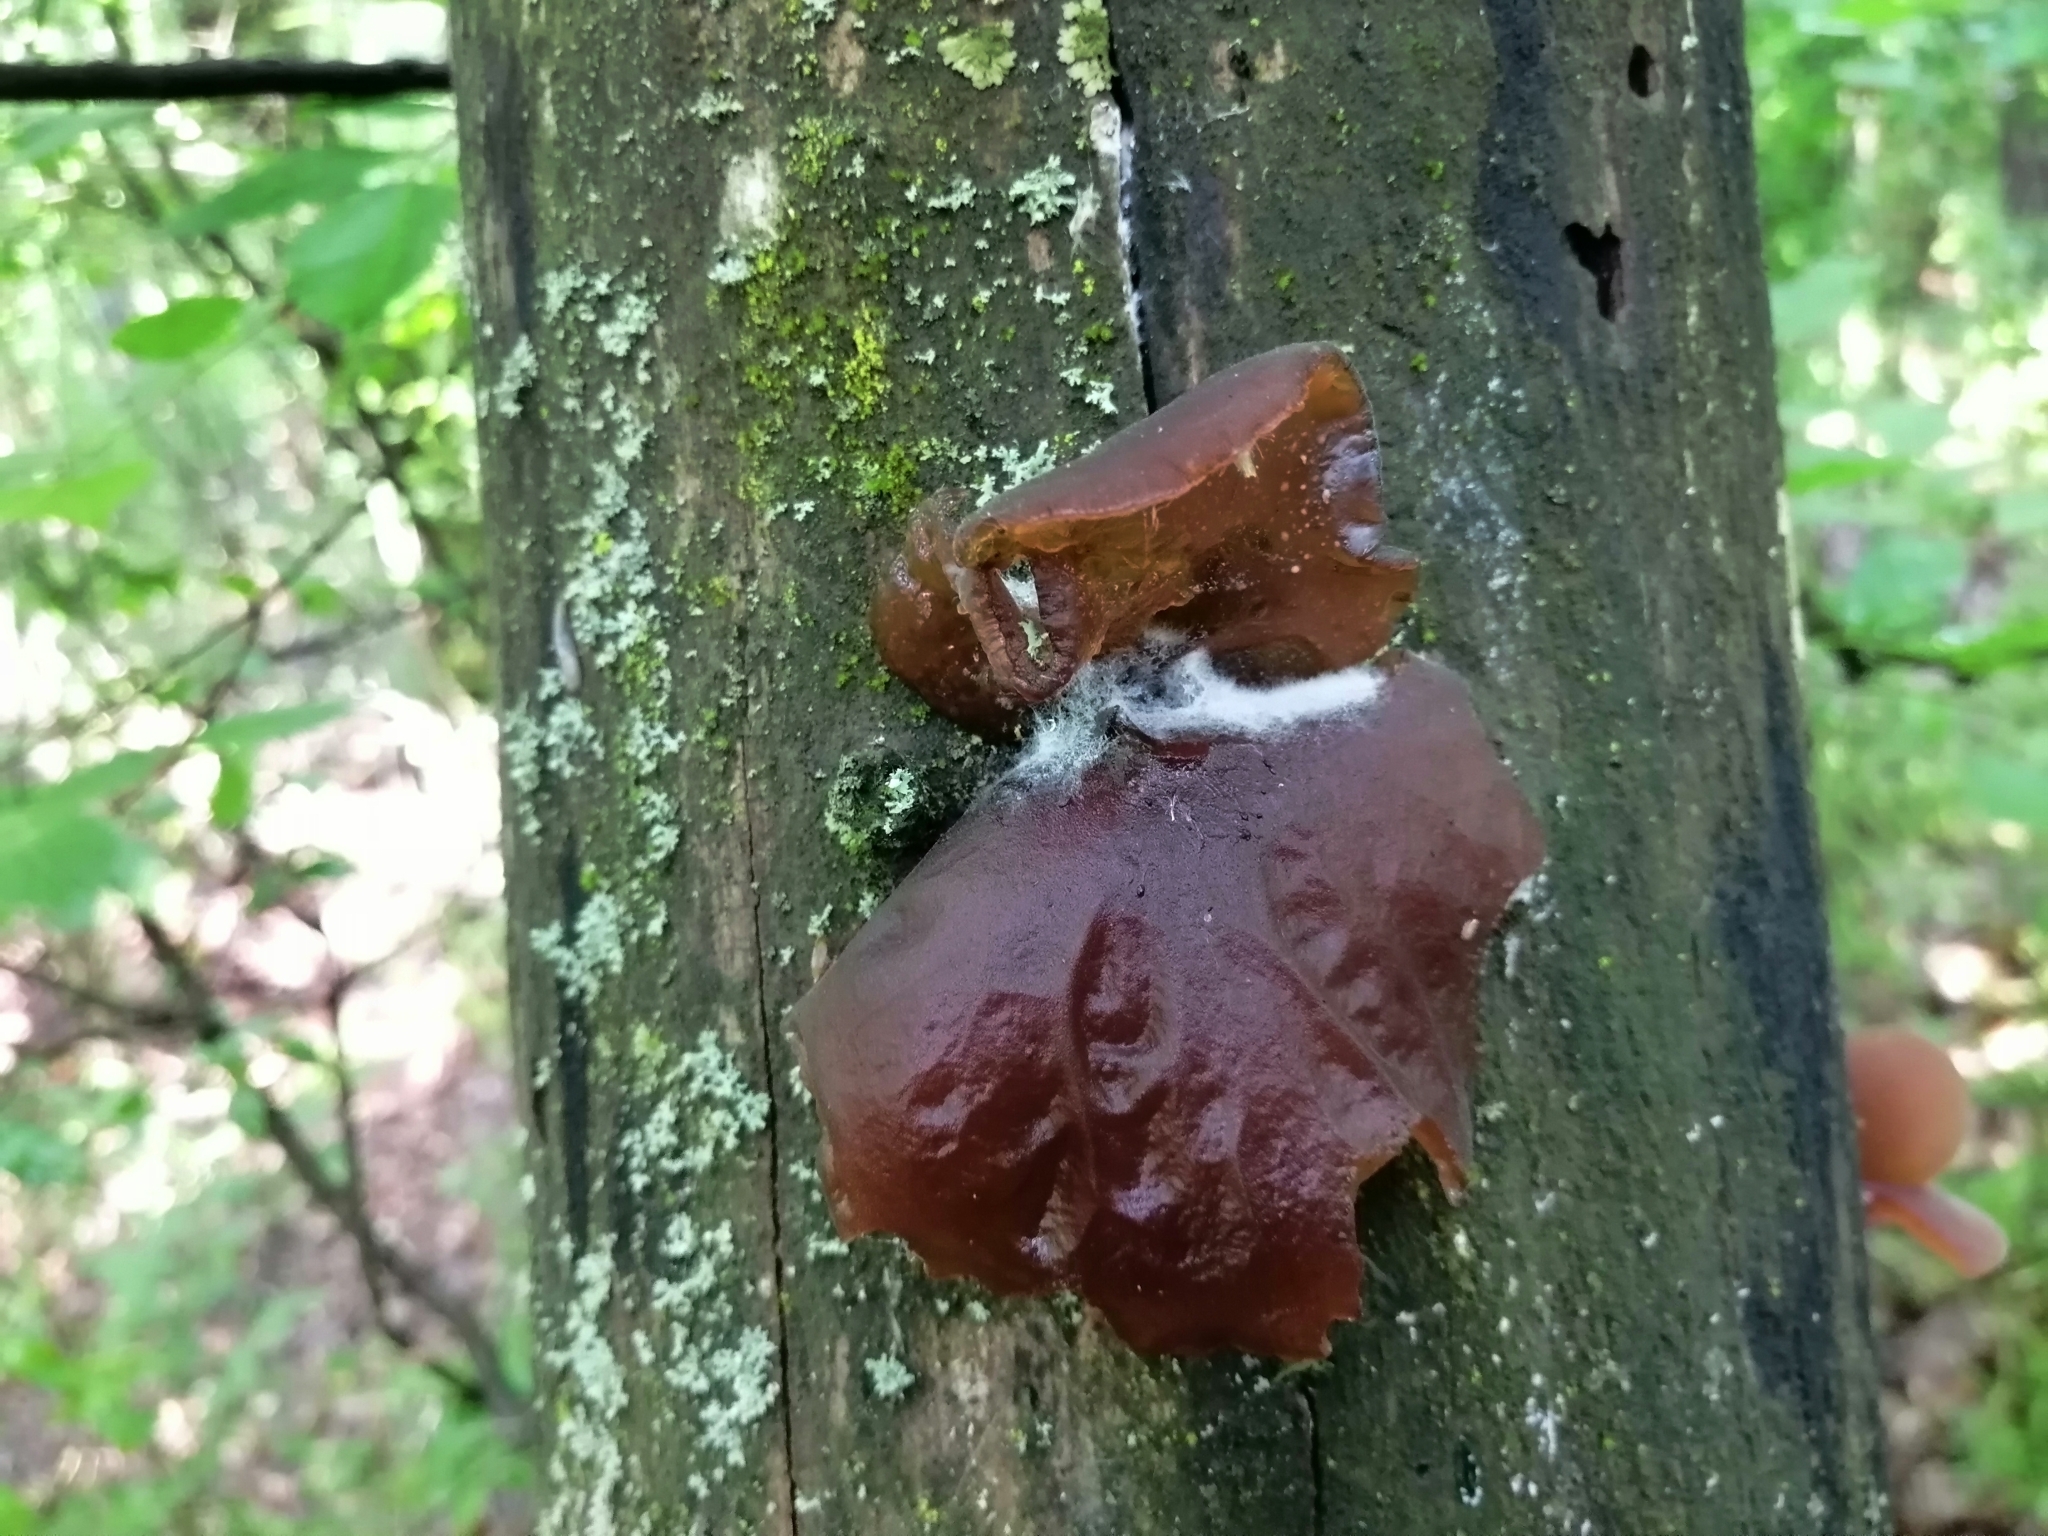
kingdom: Fungi
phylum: Basidiomycota
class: Agaricomycetes
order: Auriculariales
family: Auriculariaceae
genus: Auricularia
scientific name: Auricularia auricula-judae
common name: Jelly ear
